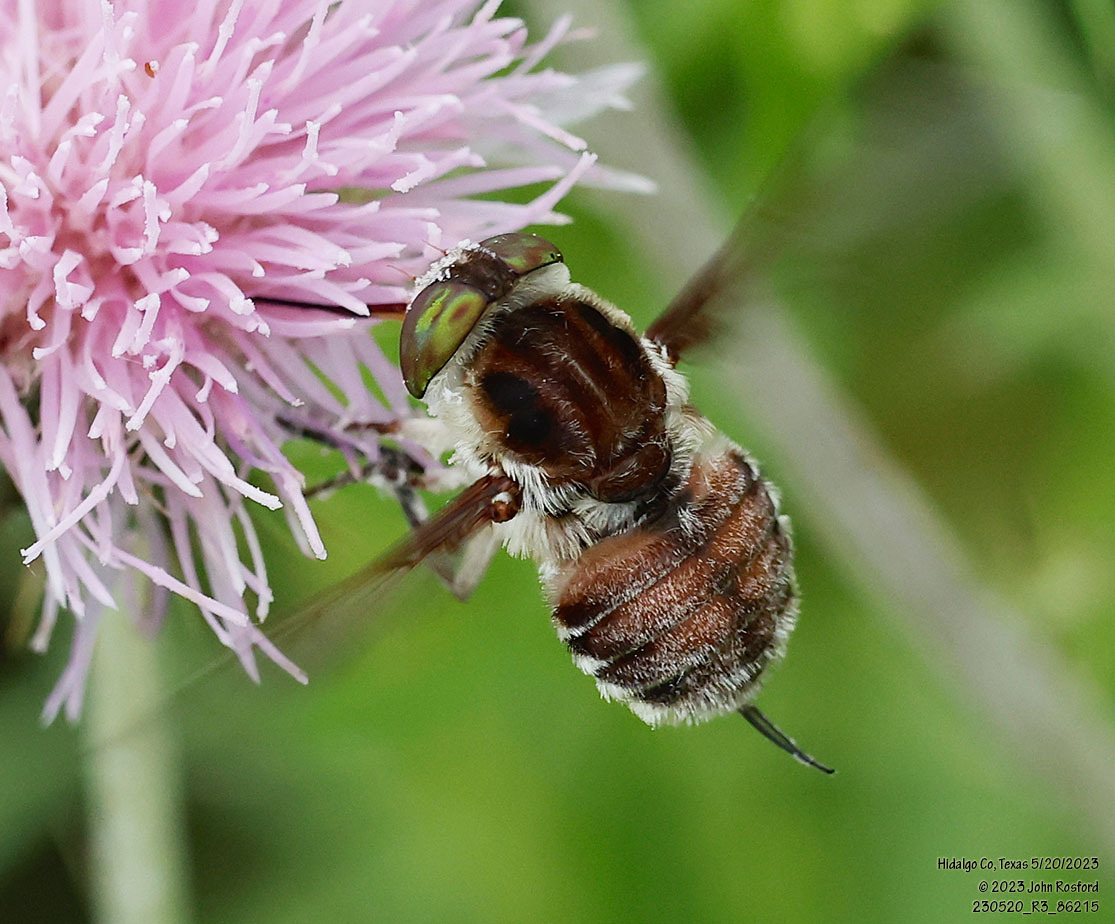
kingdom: Animalia
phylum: Arthropoda
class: Insecta
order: Diptera
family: Nemestrinidae
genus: Neorhynchocephalus
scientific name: Neorhynchocephalus volaticus
